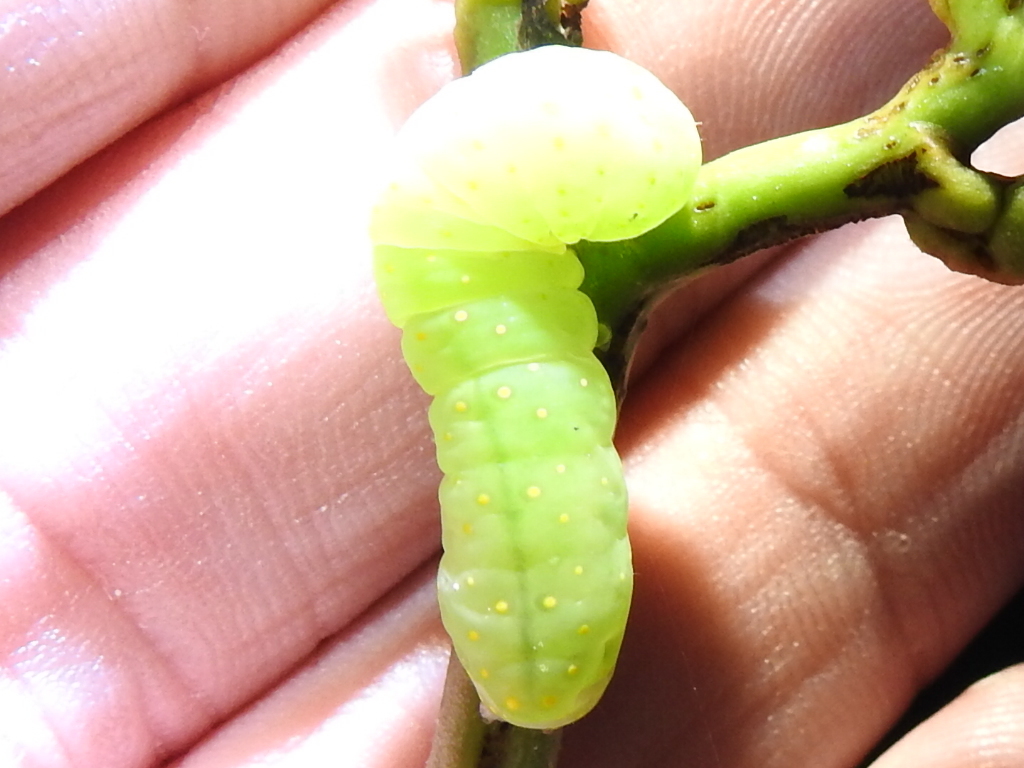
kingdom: Animalia
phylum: Arthropoda
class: Insecta
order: Lepidoptera
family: Noctuidae
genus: Phosphila
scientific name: Phosphila miselioides
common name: Spotted phosphila moth
